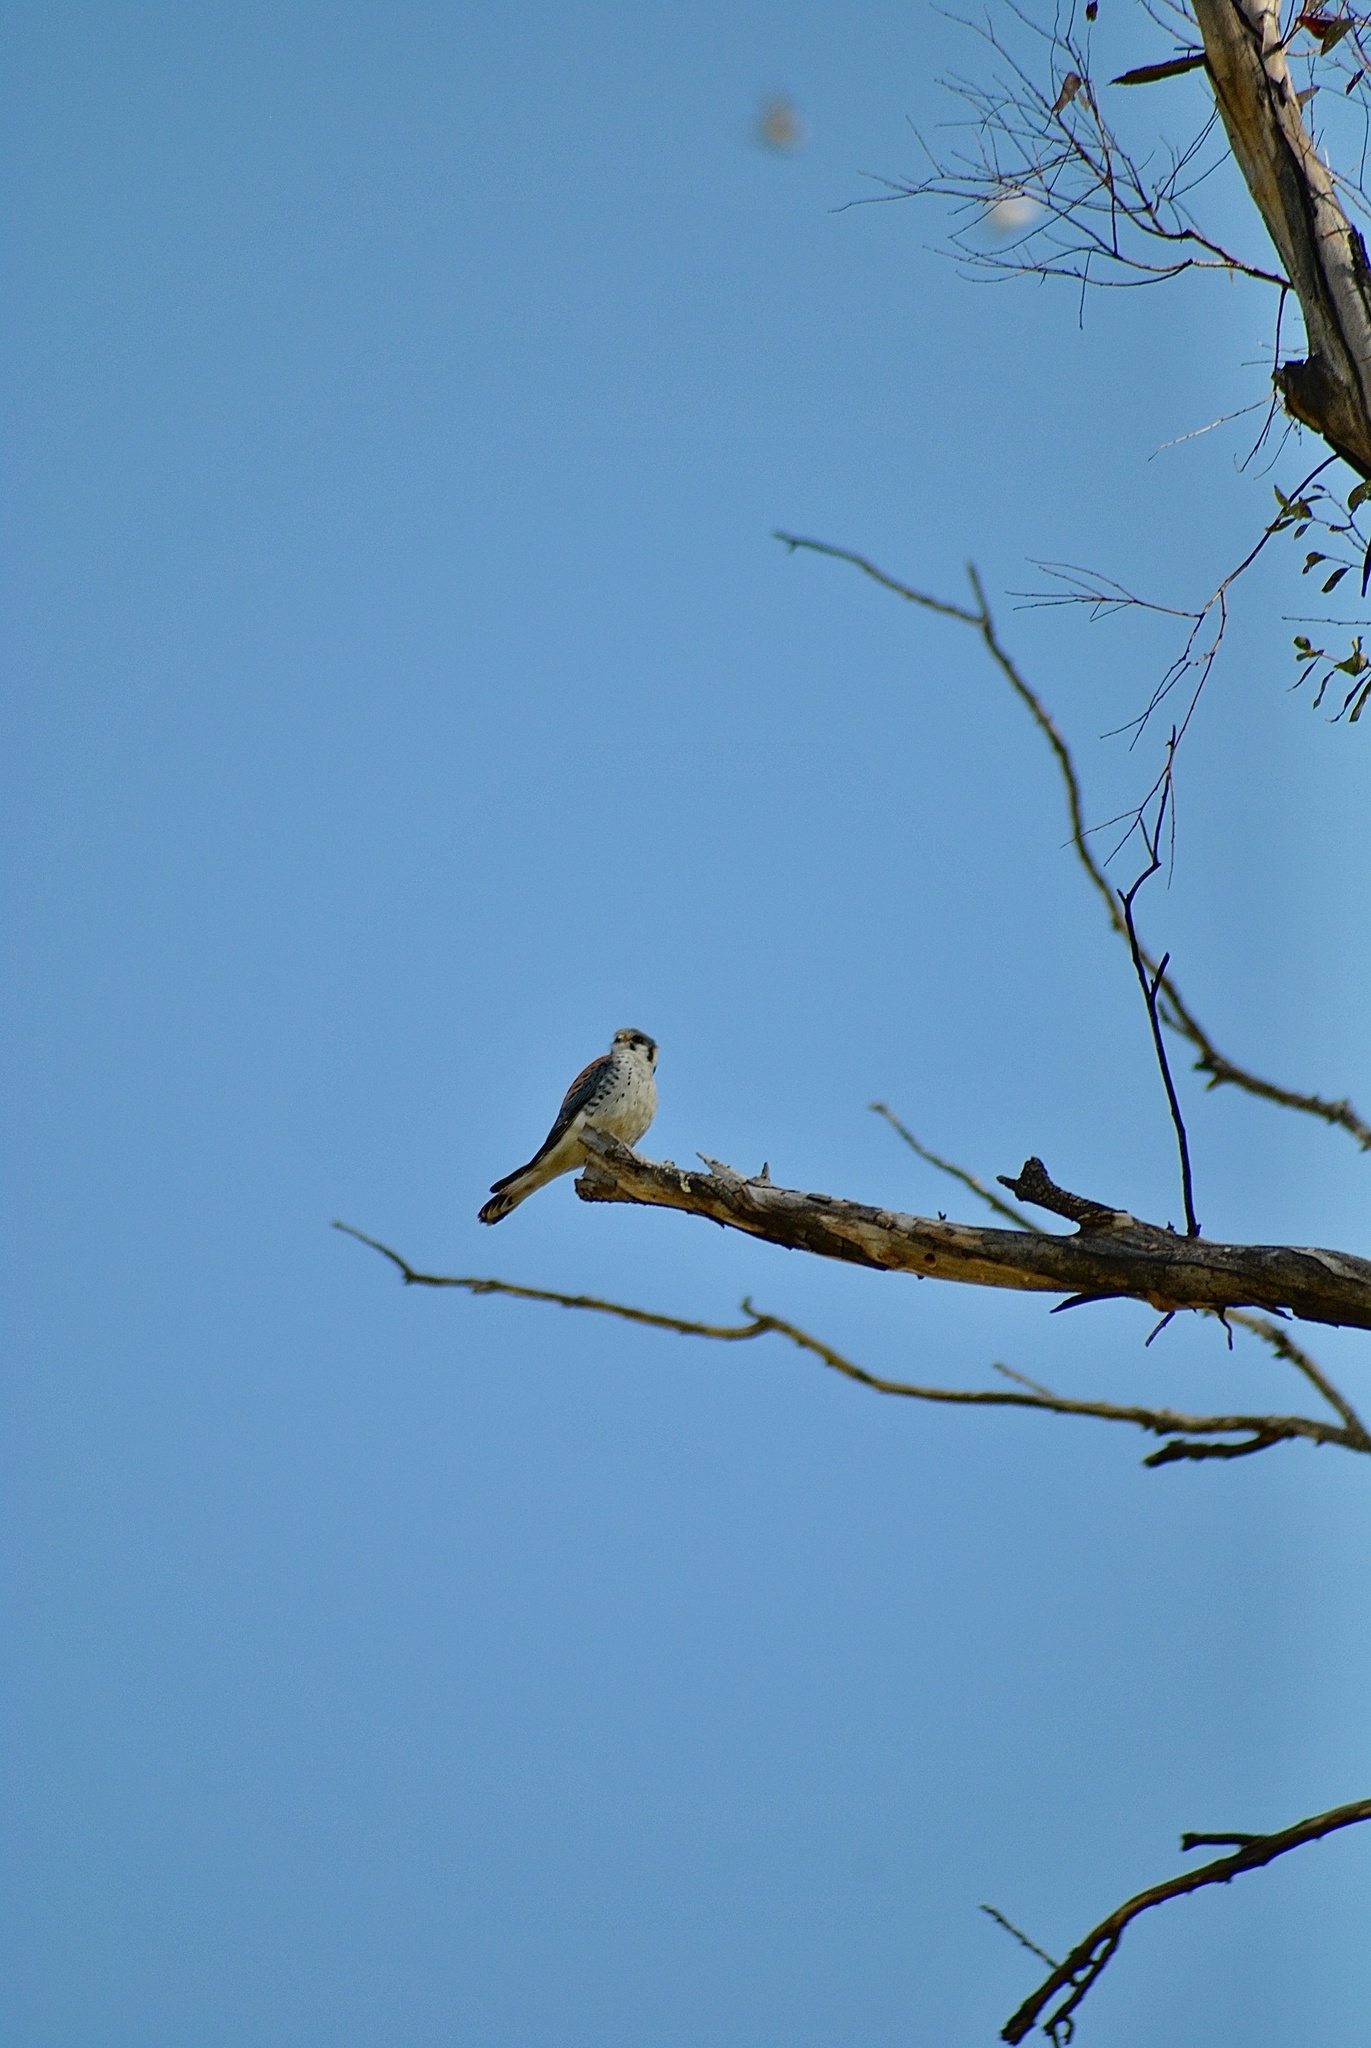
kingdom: Animalia
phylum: Chordata
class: Aves
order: Falconiformes
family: Falconidae
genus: Falco
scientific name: Falco sparverius
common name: American kestrel
